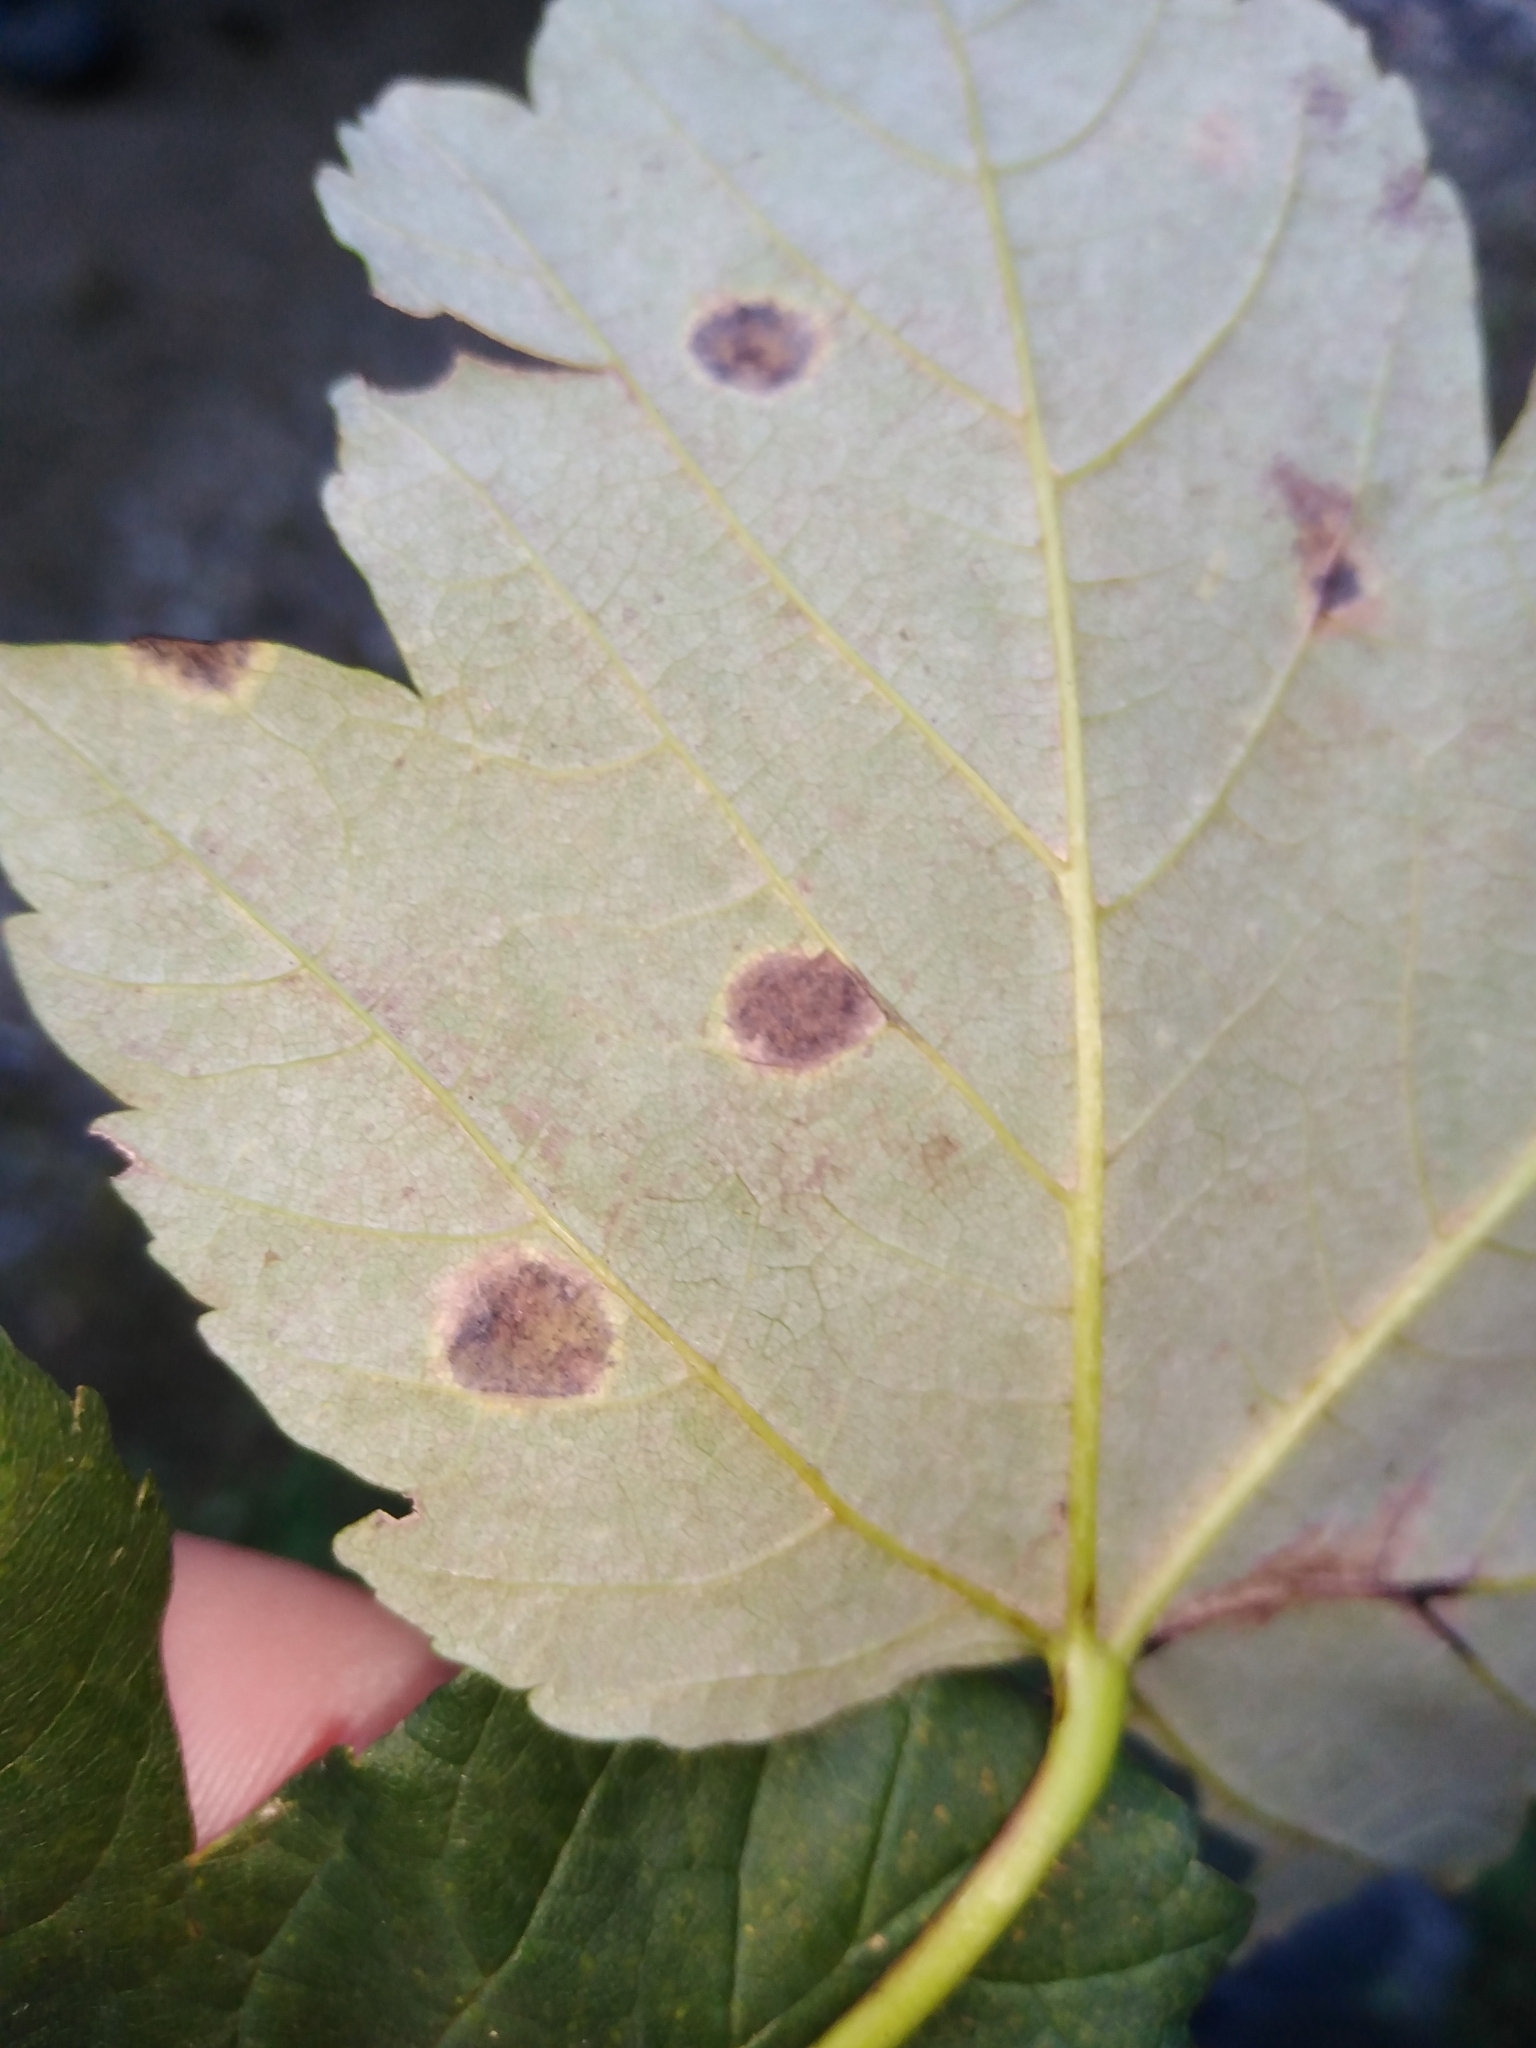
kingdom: Fungi
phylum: Ascomycota
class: Leotiomycetes
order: Rhytismatales
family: Rhytismataceae
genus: Rhytisma
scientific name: Rhytisma acerinum
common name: European tar spot
